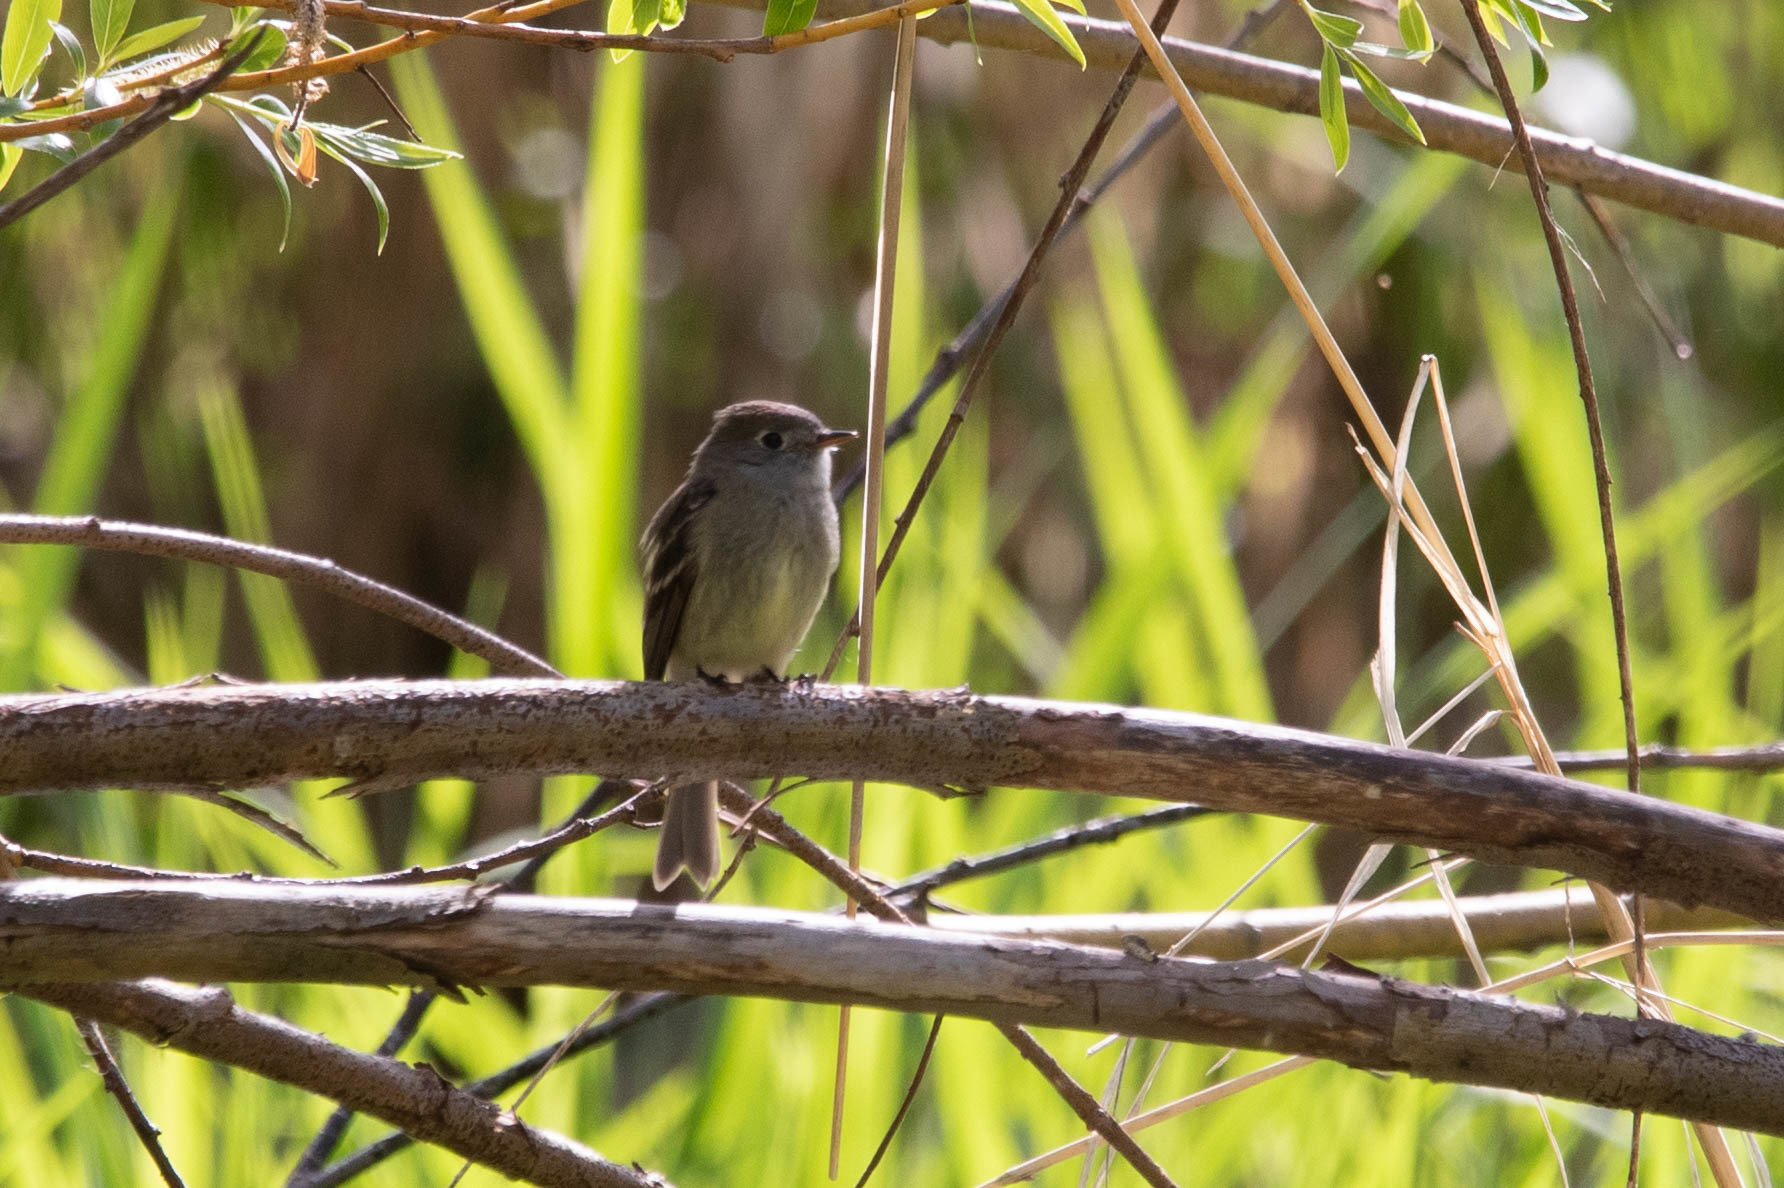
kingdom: Animalia
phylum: Chordata
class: Aves
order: Passeriformes
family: Tyrannidae
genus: Empidonax
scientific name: Empidonax hammondii
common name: Hammond's flycatcher
